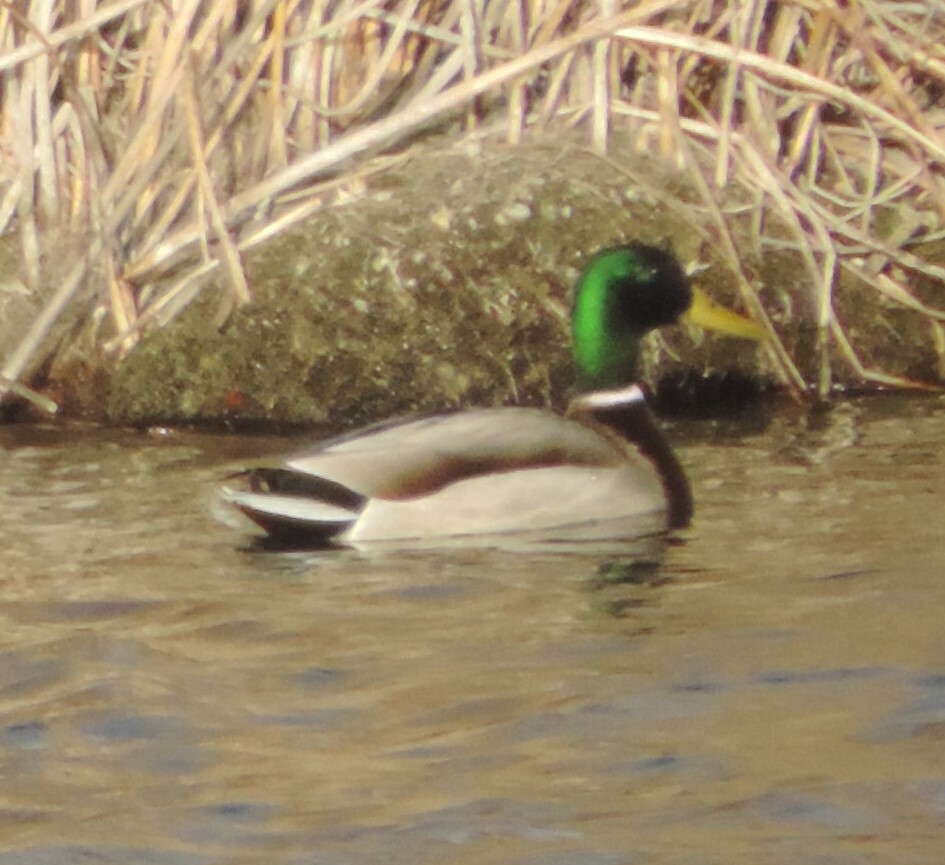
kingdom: Animalia
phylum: Chordata
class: Aves
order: Anseriformes
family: Anatidae
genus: Anas
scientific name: Anas platyrhynchos
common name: Mallard
